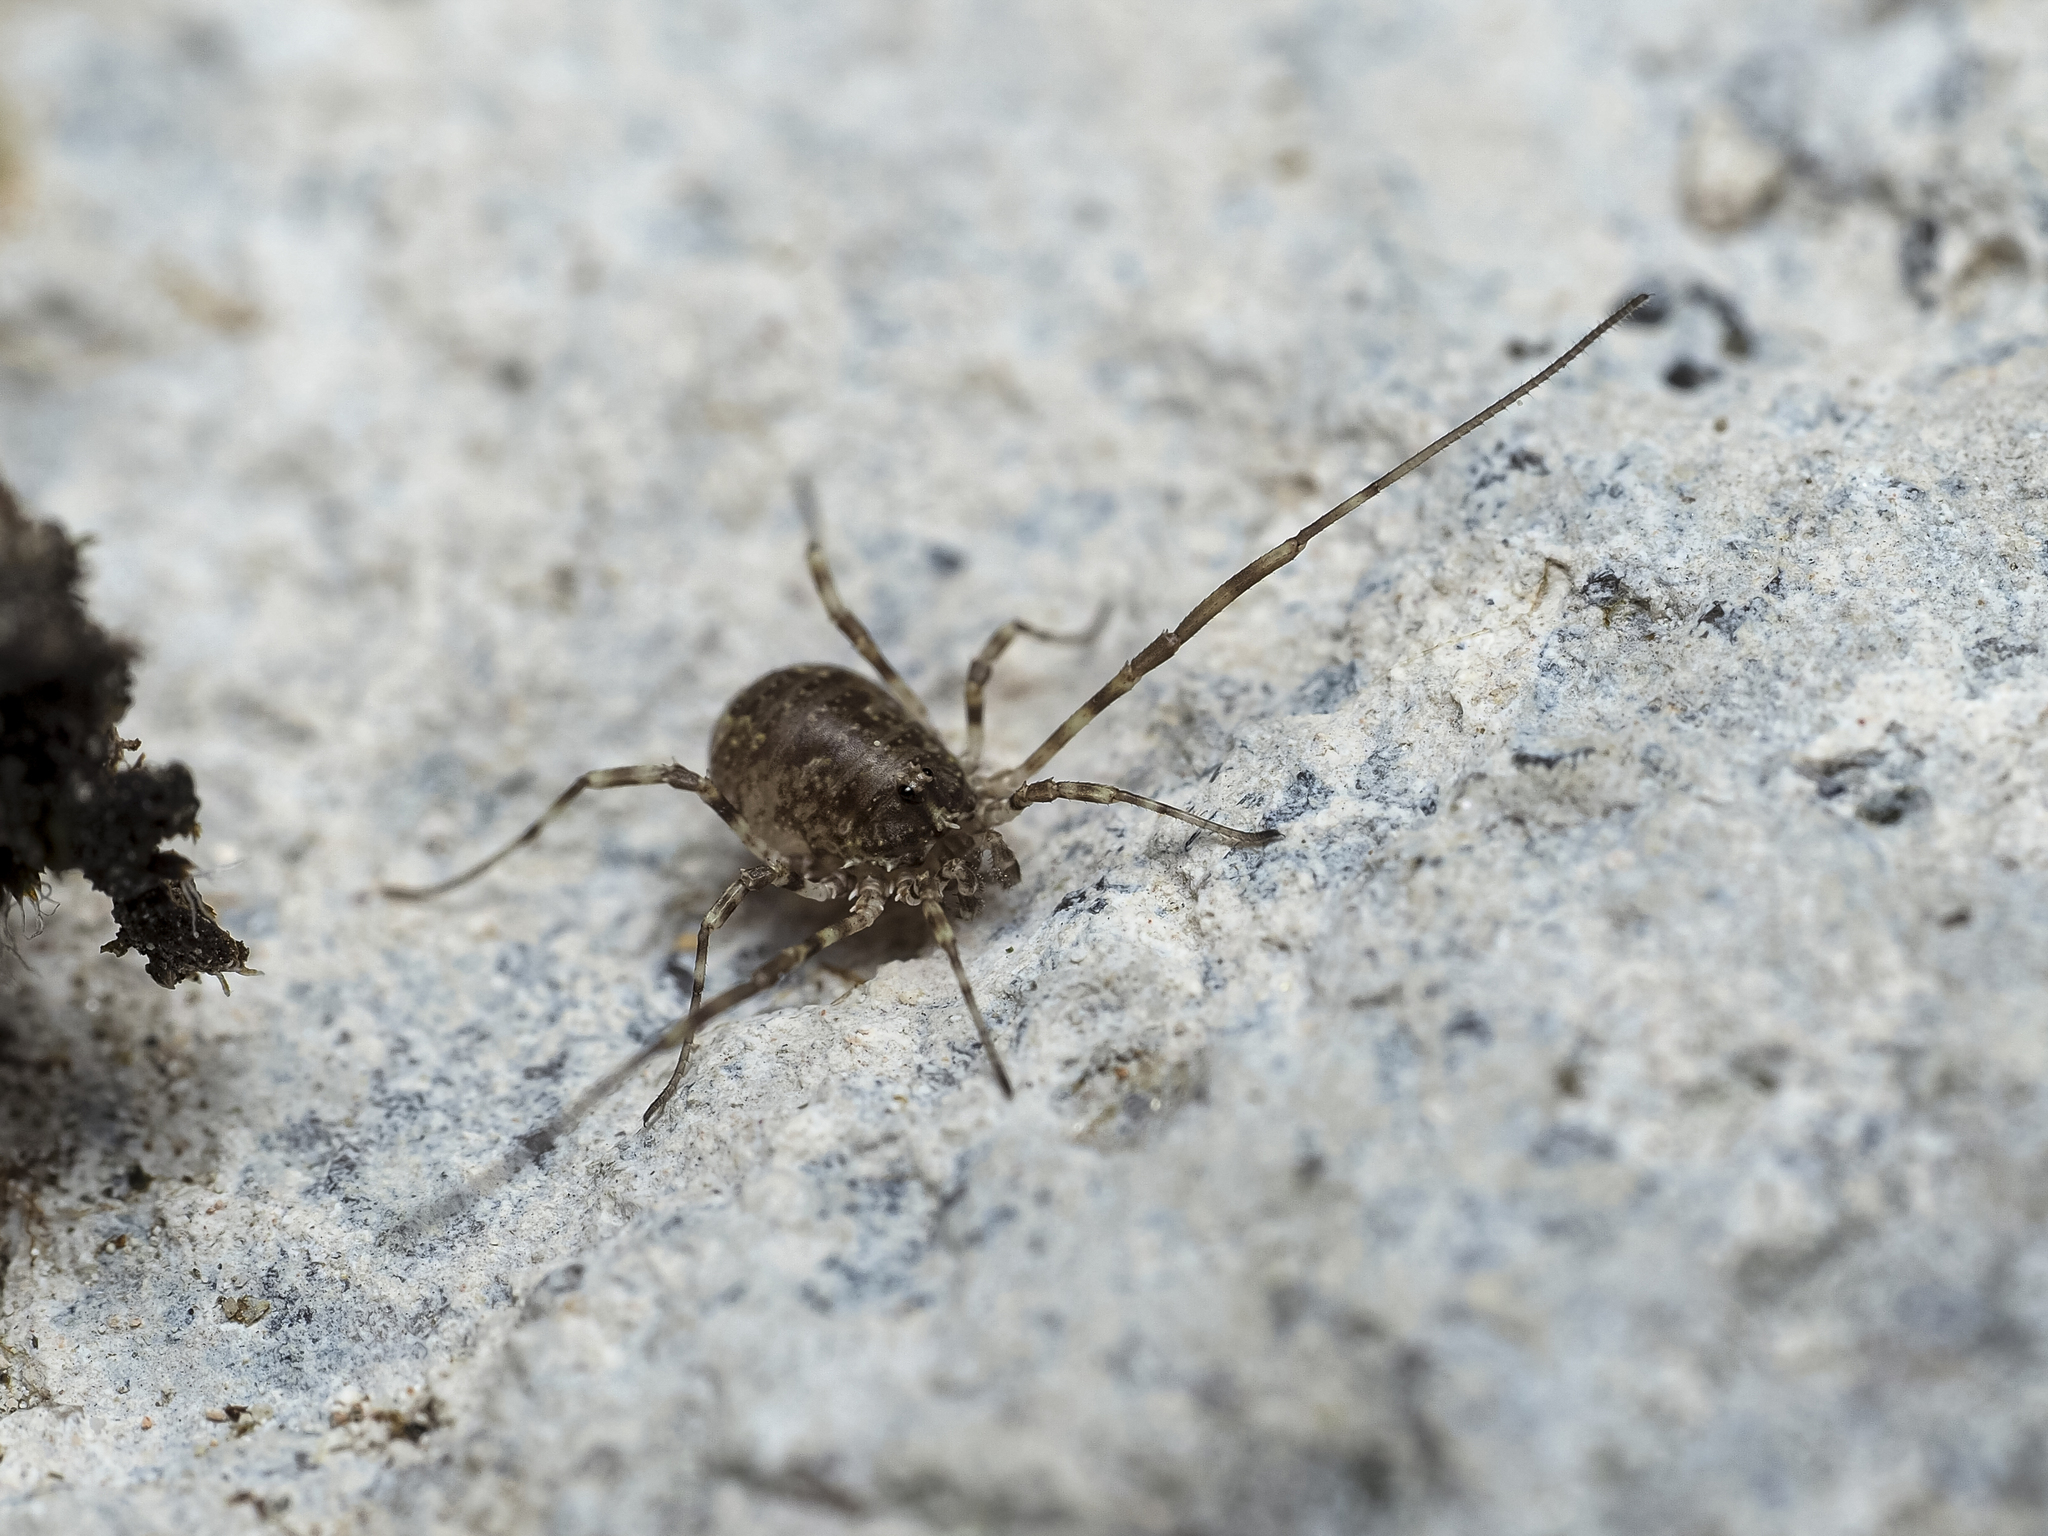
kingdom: Animalia
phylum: Arthropoda
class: Arachnida
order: Opiliones
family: Phalangiidae
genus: Lacinius
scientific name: Lacinius dentiger
